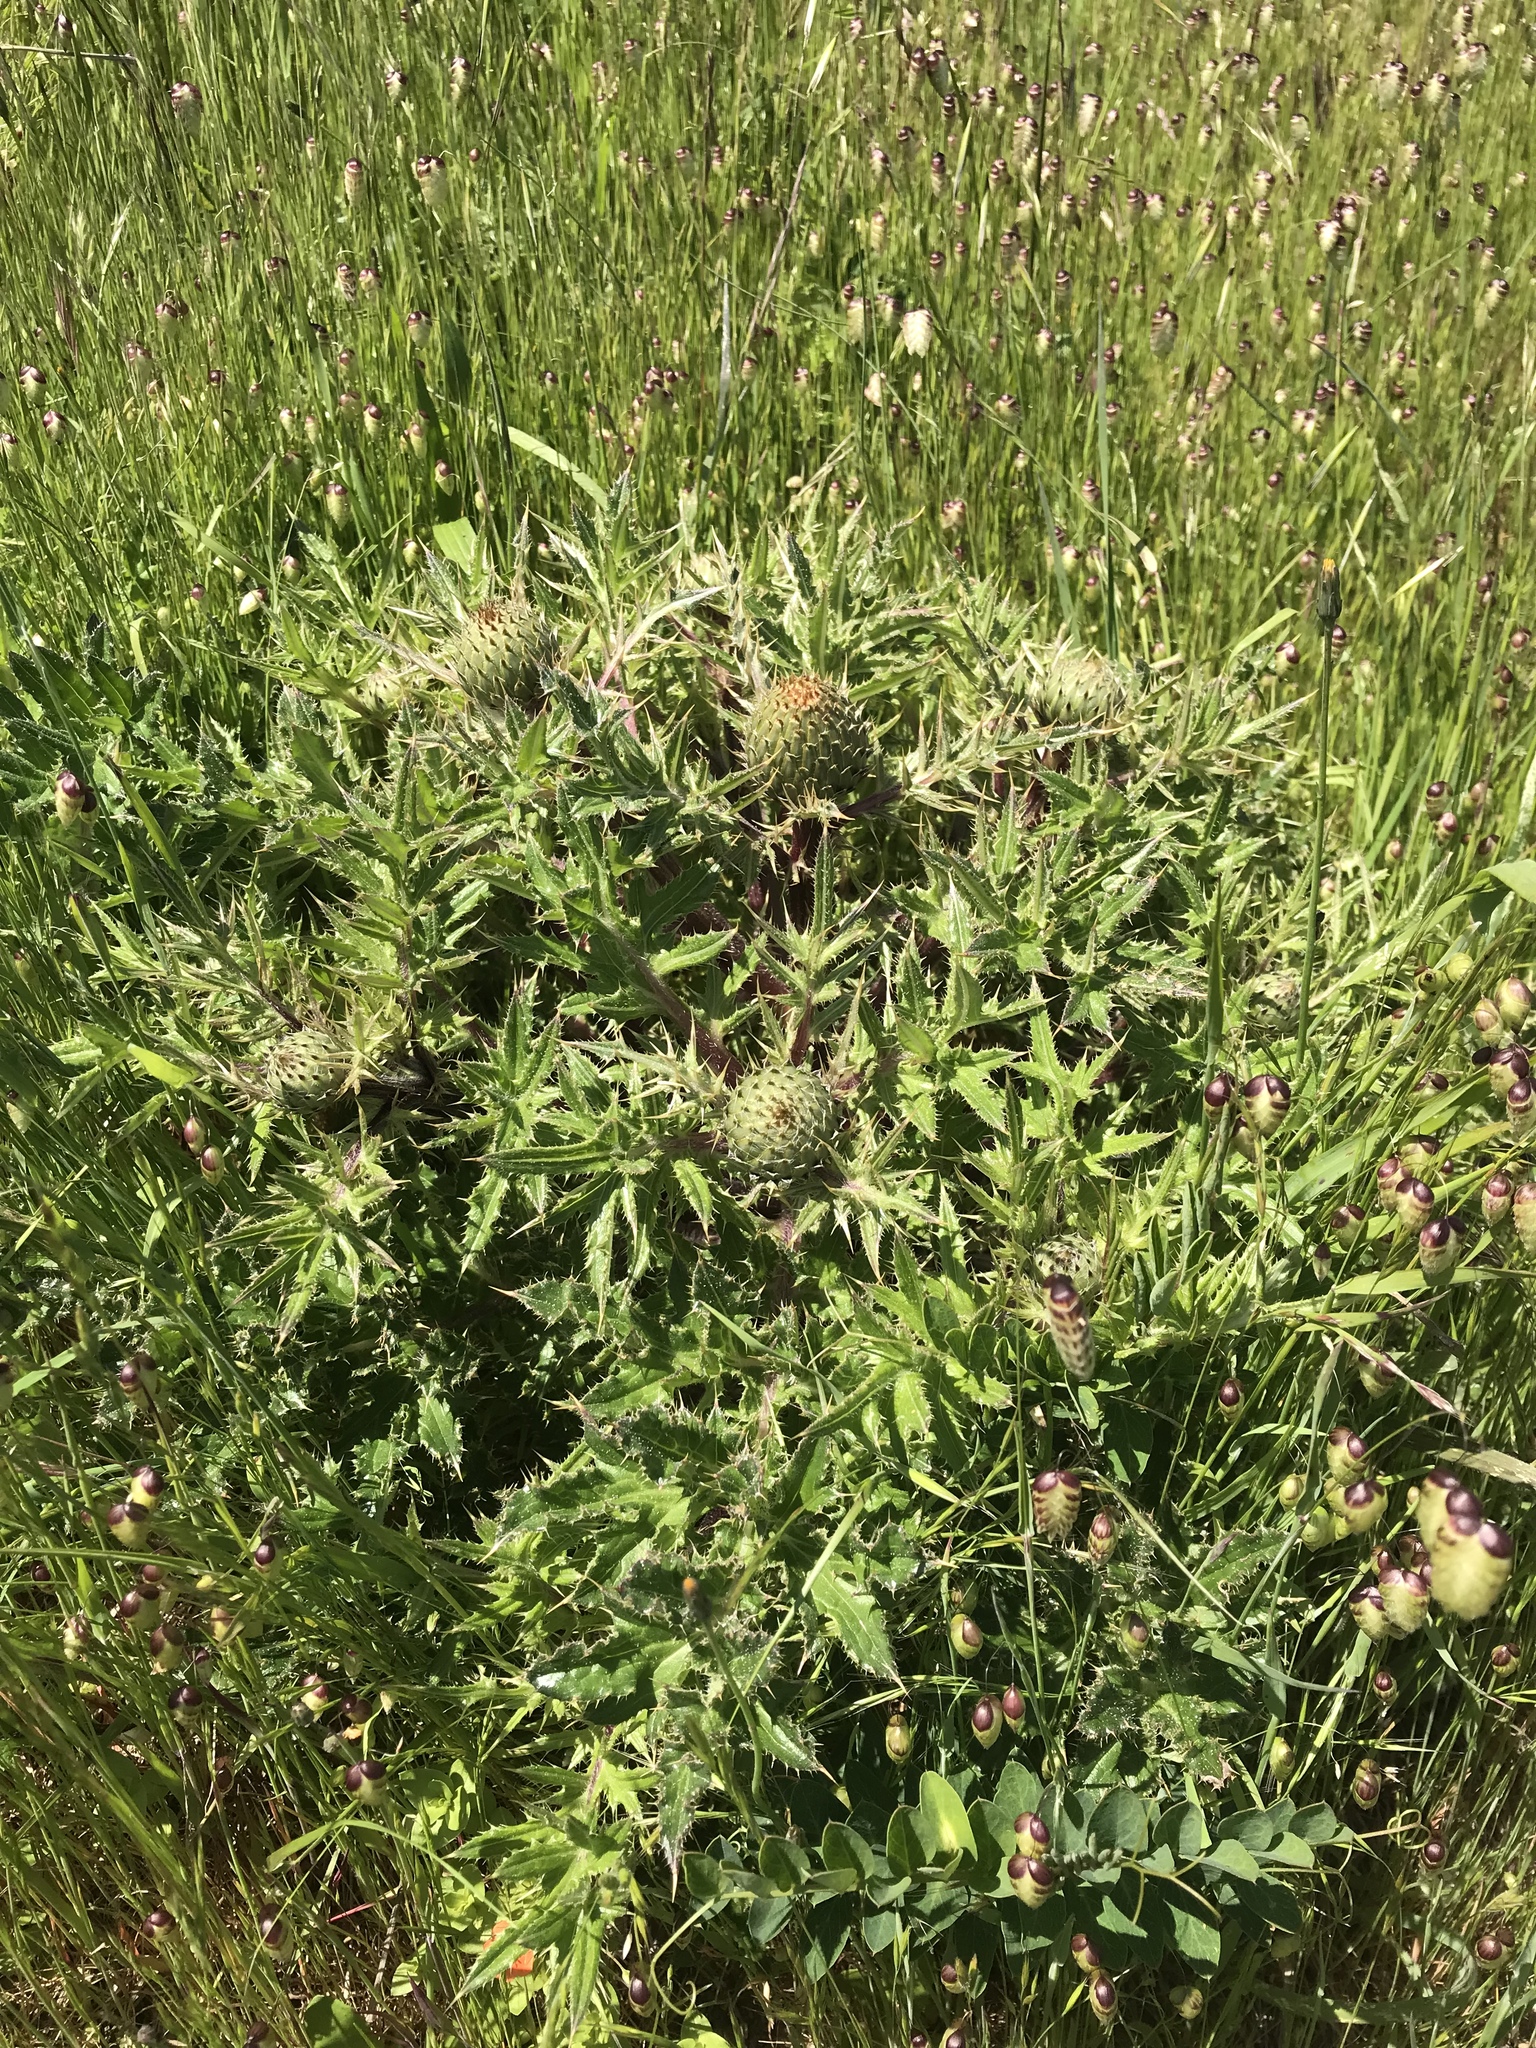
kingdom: Plantae
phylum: Tracheophyta
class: Magnoliopsida
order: Asterales
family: Asteraceae
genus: Cirsium
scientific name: Cirsium quercetorum
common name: Alameda county thistle
